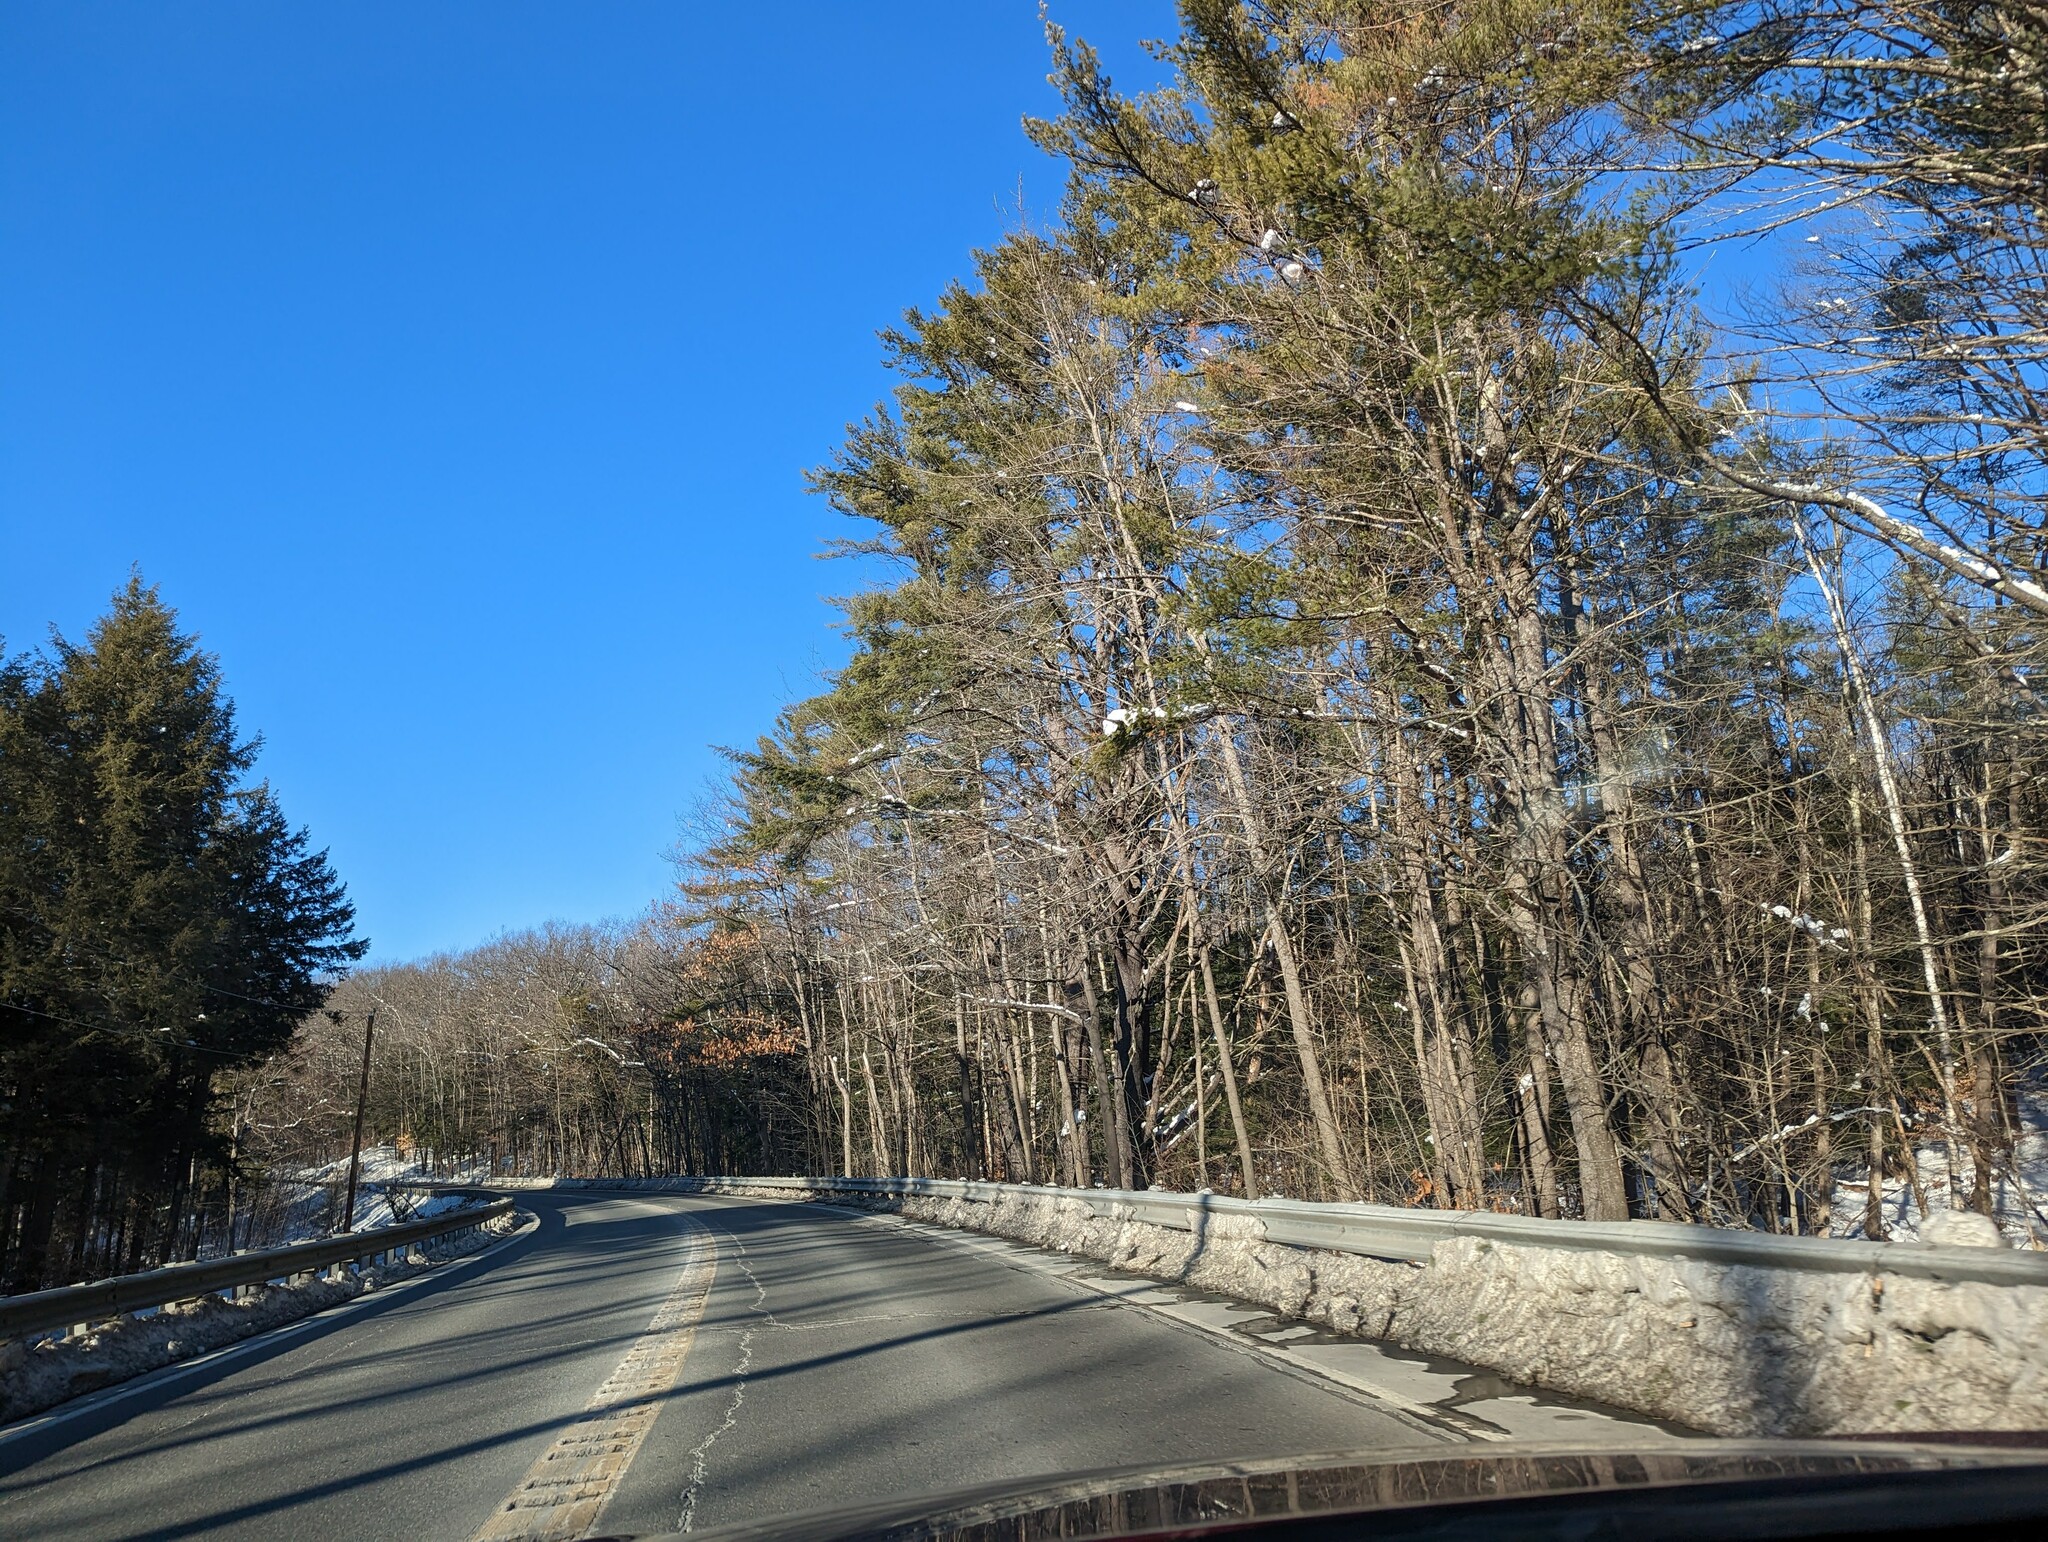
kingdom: Plantae
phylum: Tracheophyta
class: Pinopsida
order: Pinales
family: Pinaceae
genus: Pinus
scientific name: Pinus strobus
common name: Weymouth pine
